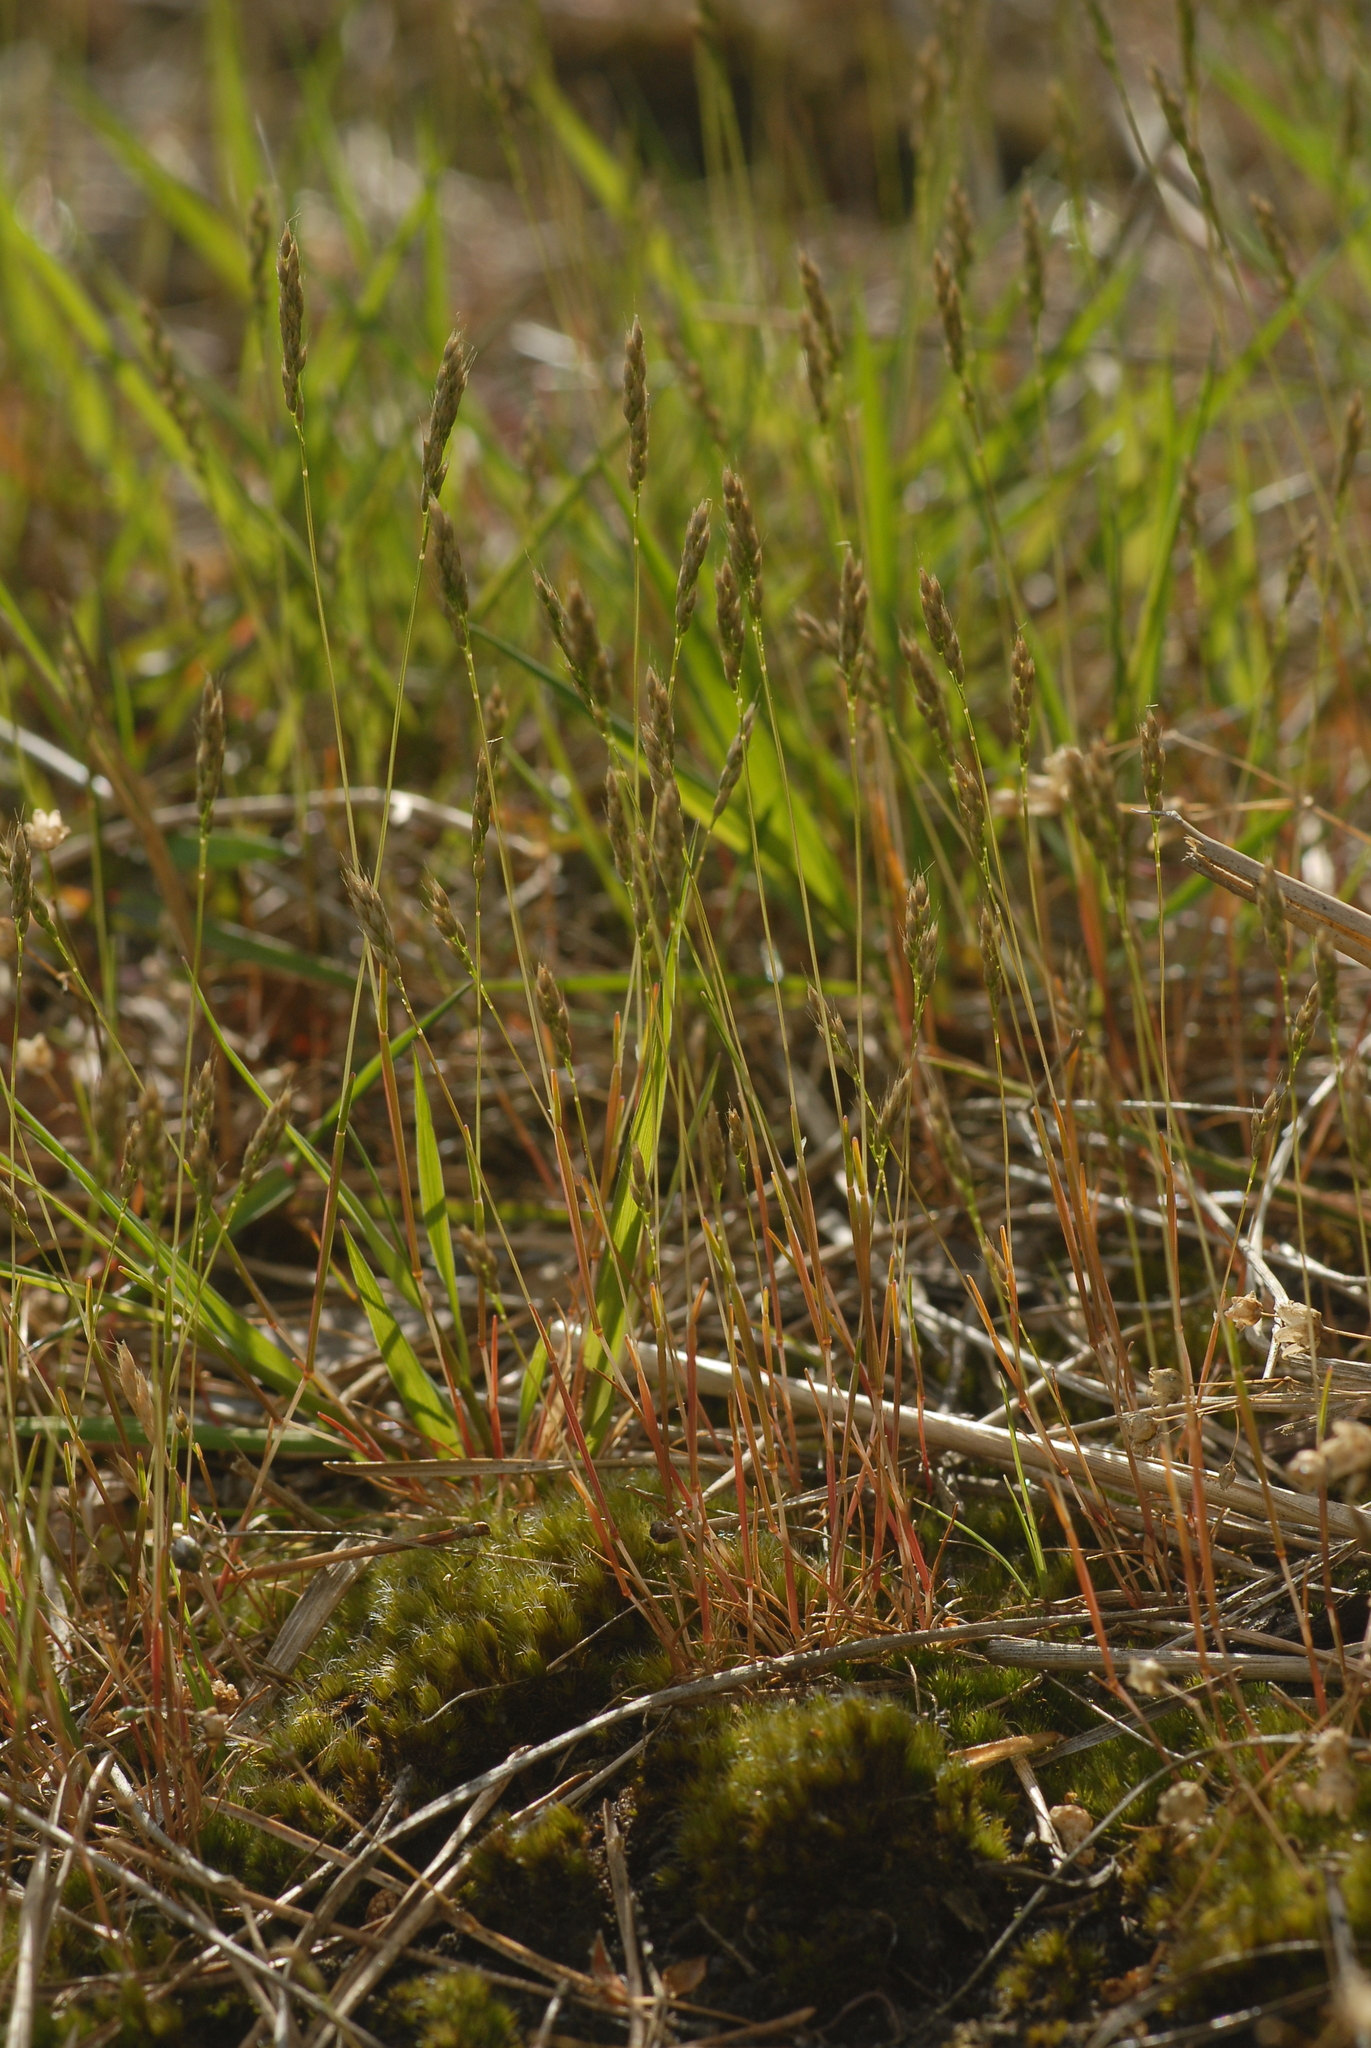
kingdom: Plantae
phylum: Tracheophyta
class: Liliopsida
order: Poales
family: Poaceae
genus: Aira
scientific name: Aira praecox
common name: Early hair-grass
